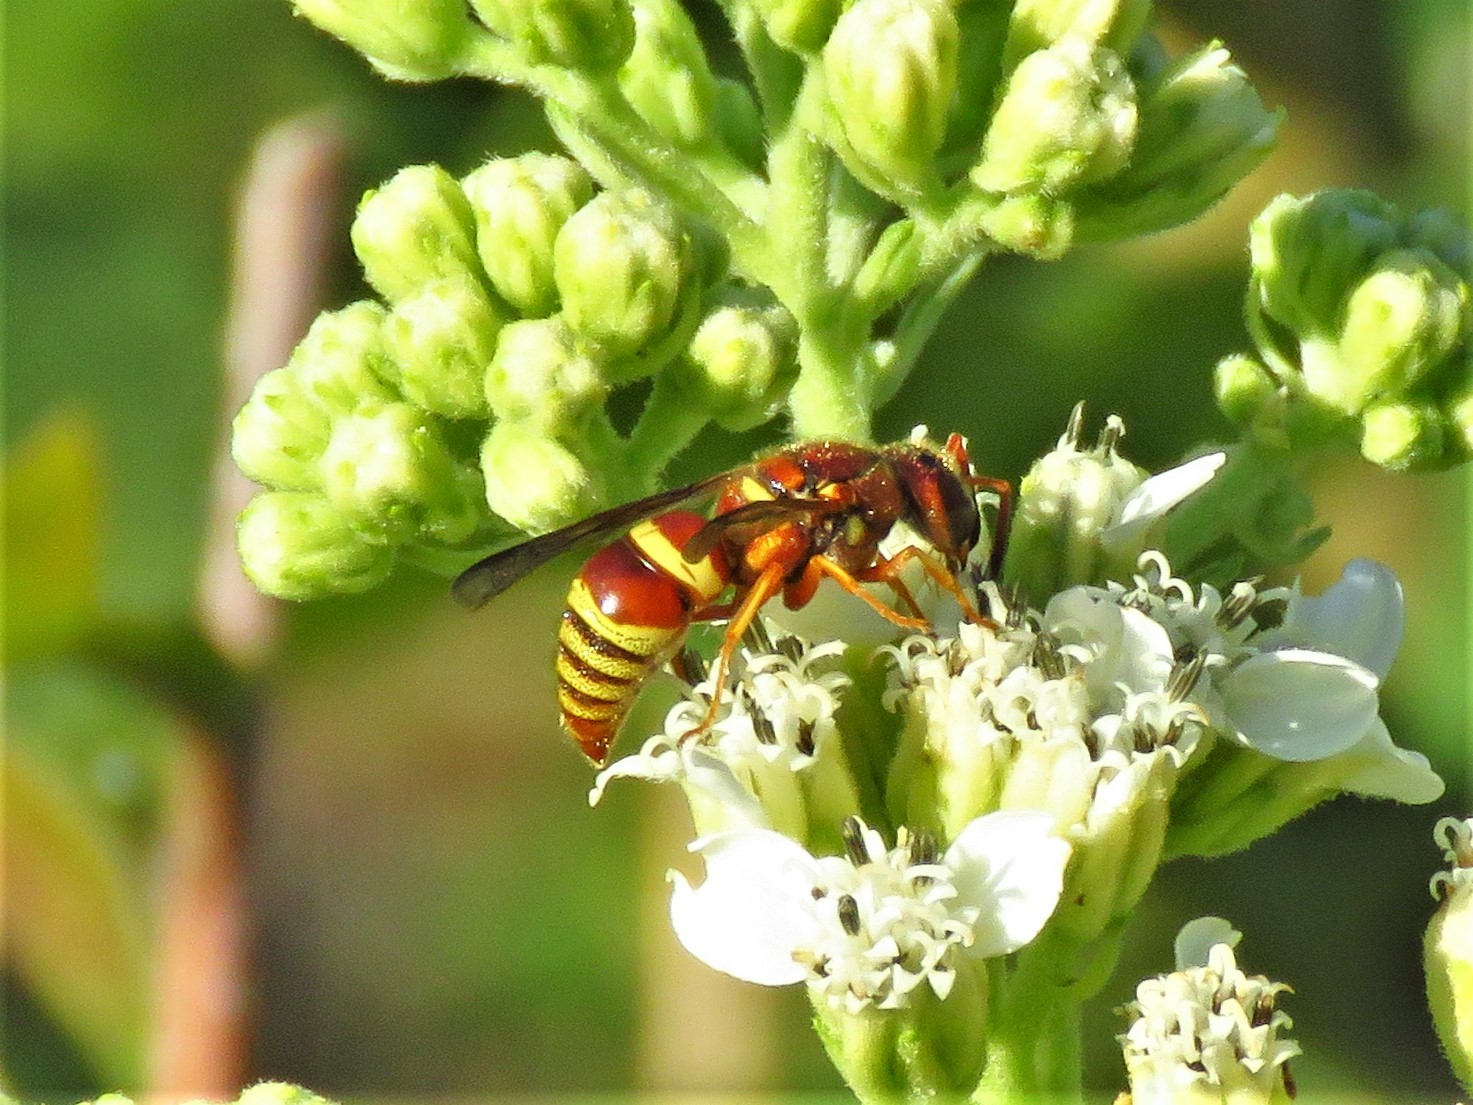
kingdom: Animalia
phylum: Arthropoda
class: Insecta
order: Hymenoptera
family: Eumenidae
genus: Euodynerus
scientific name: Euodynerus pratensis
